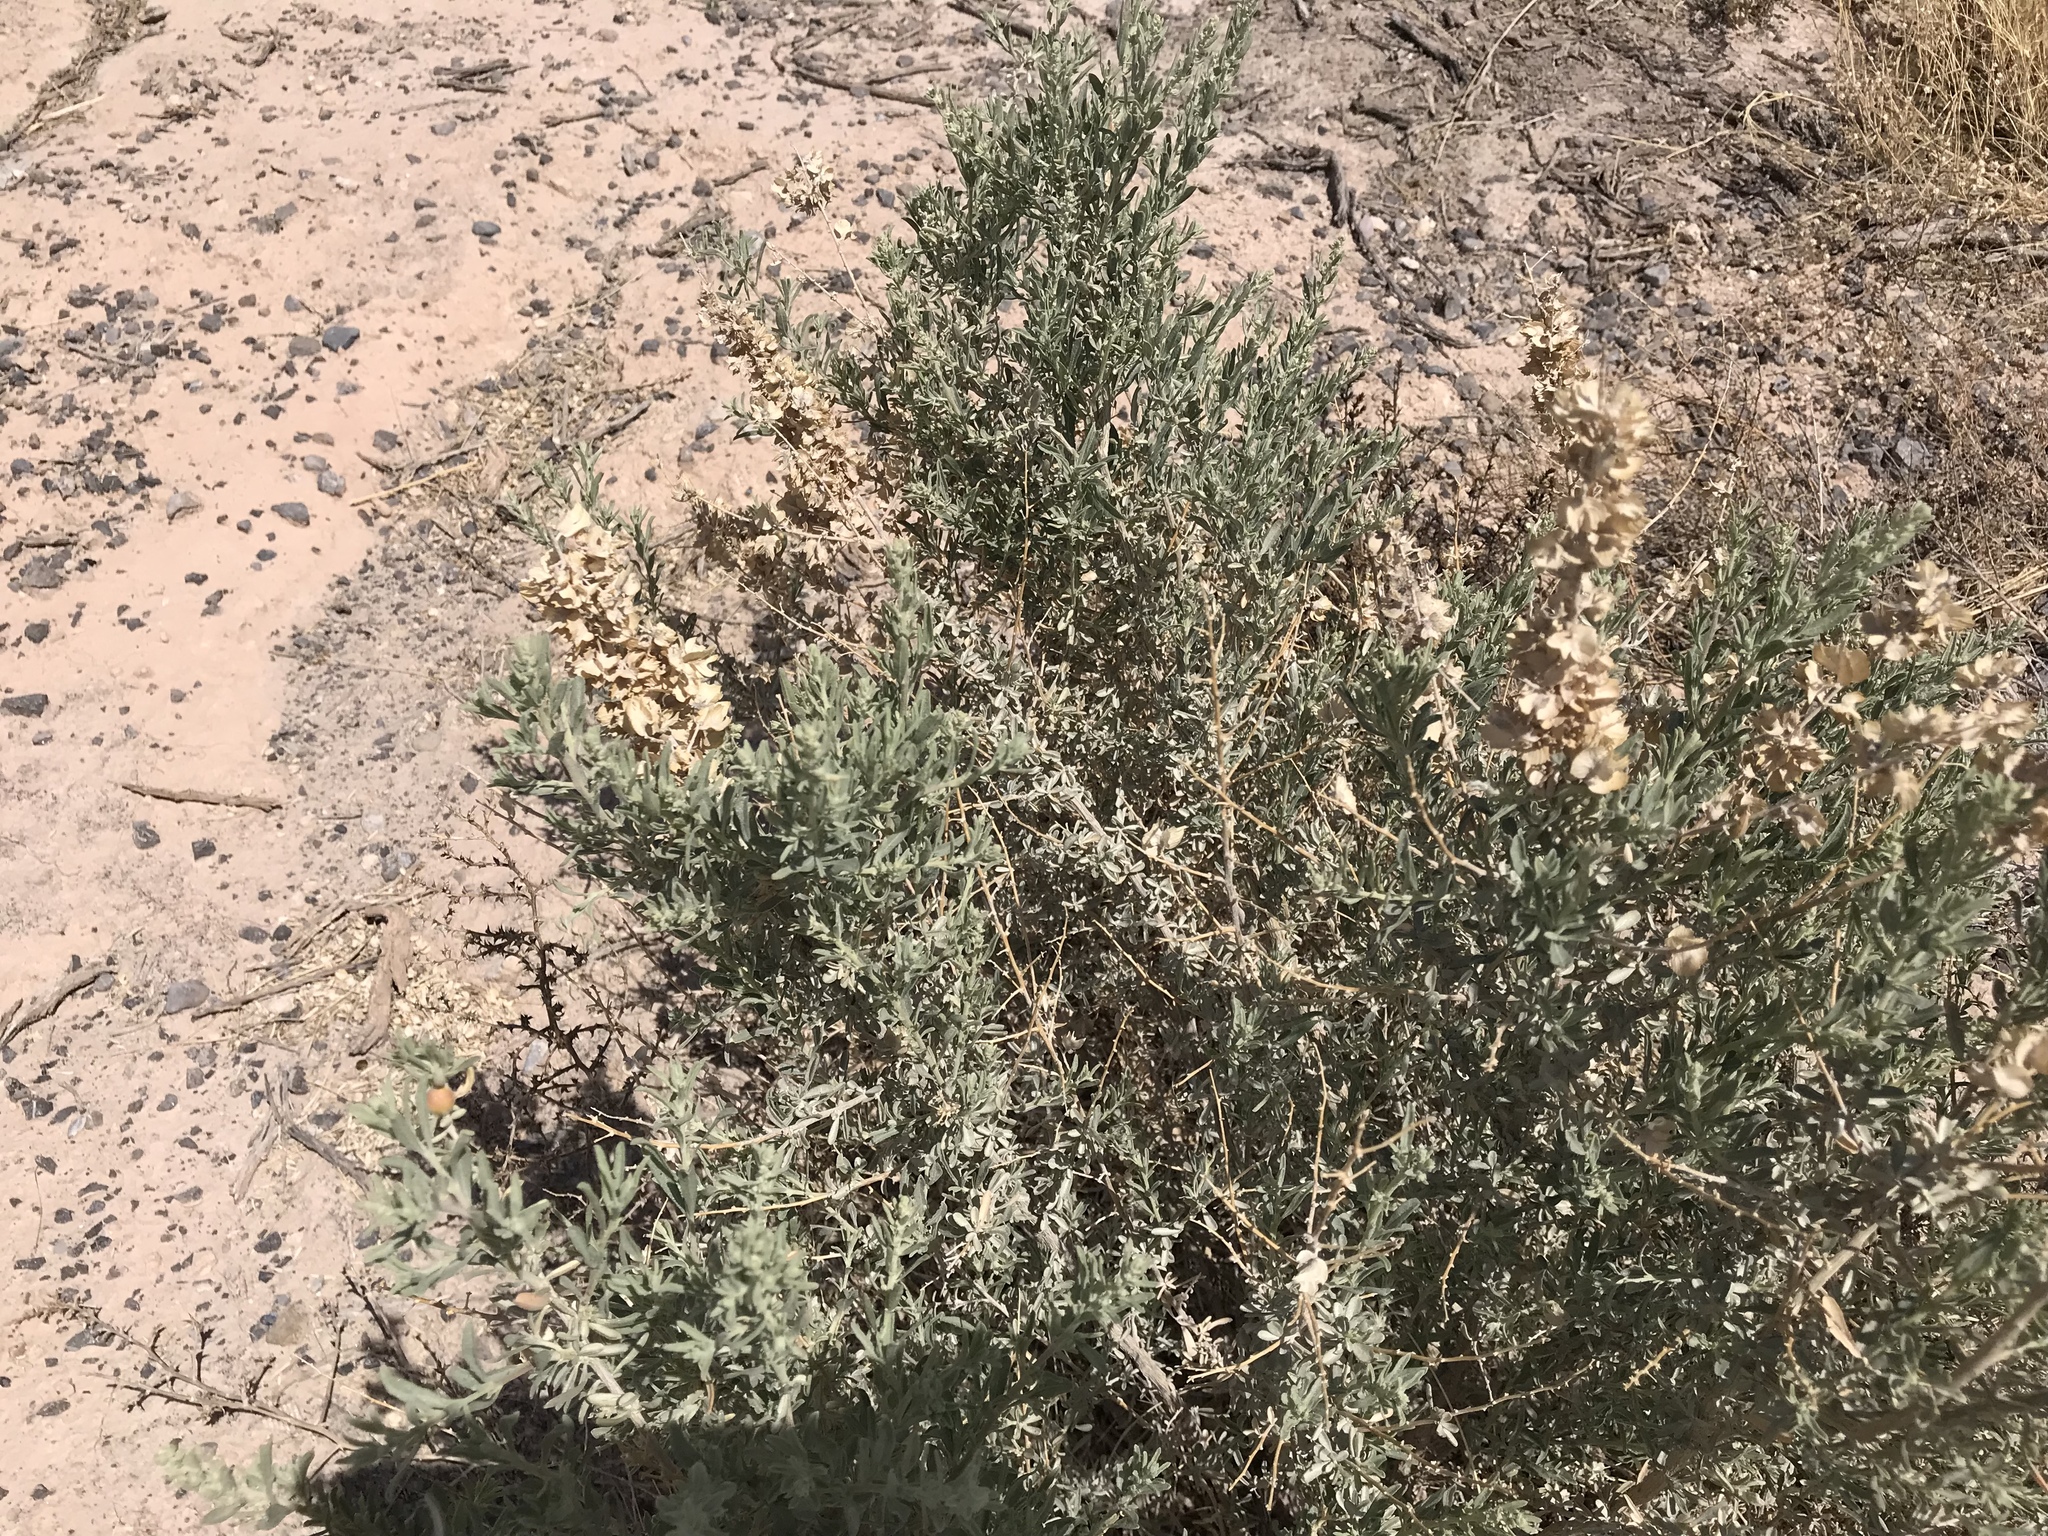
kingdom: Plantae
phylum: Tracheophyta
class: Magnoliopsida
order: Caryophyllales
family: Amaranthaceae
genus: Atriplex
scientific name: Atriplex canescens
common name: Four-wing saltbush
